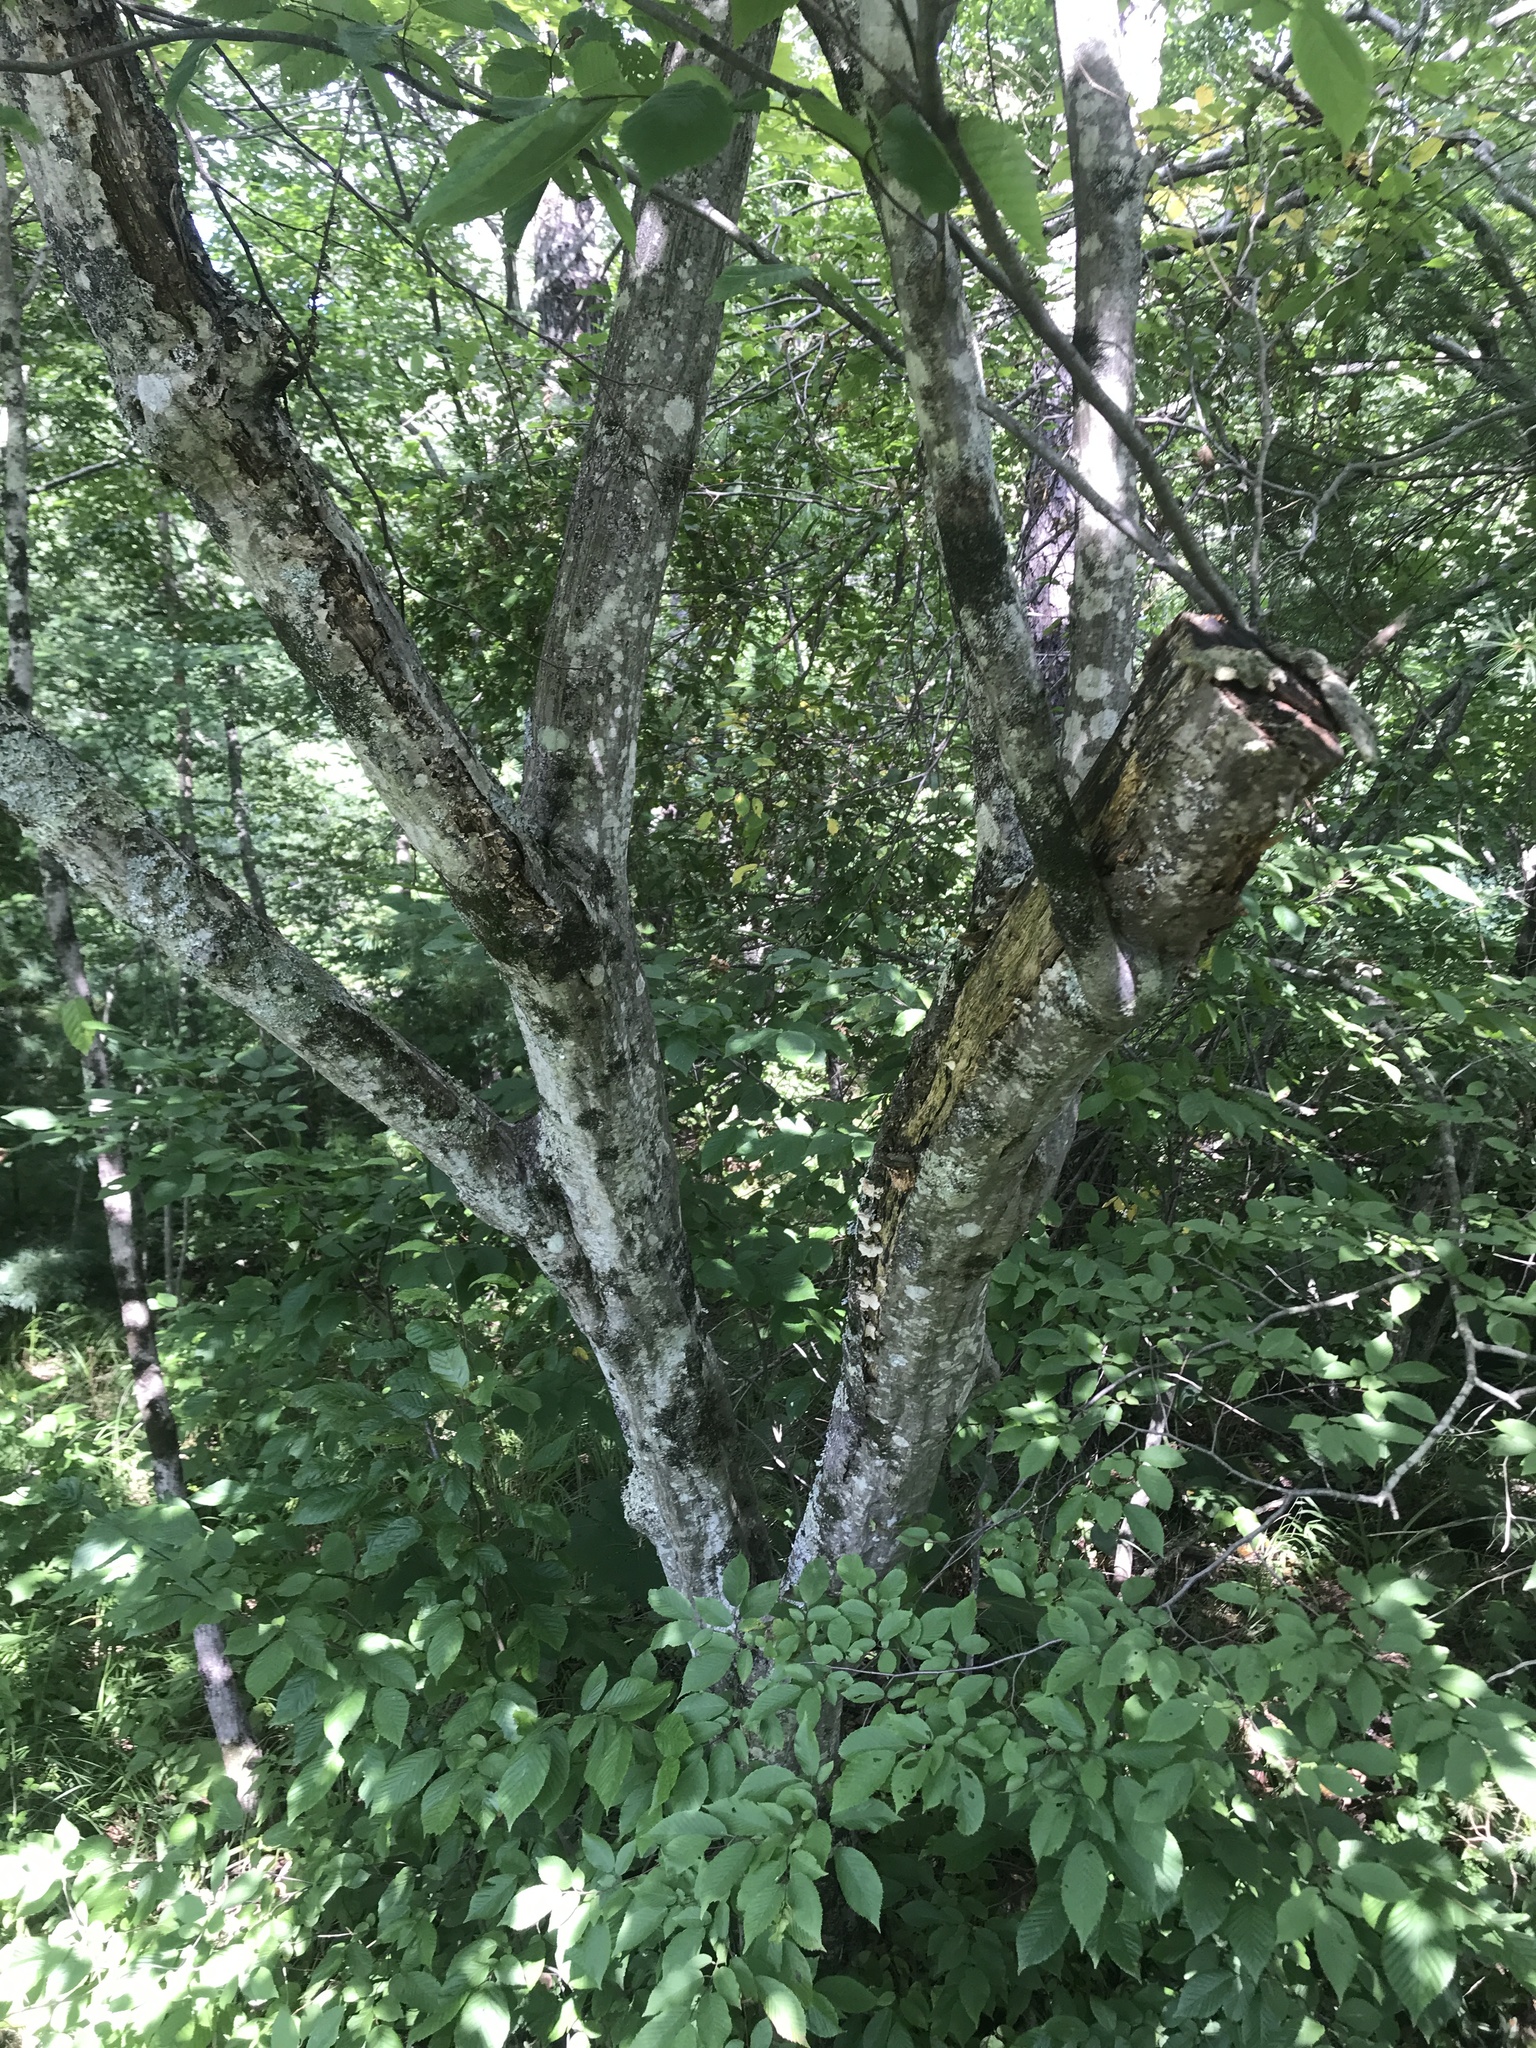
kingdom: Plantae
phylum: Tracheophyta
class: Magnoliopsida
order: Fagales
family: Betulaceae
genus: Carpinus
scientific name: Carpinus caroliniana
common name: American hornbeam
